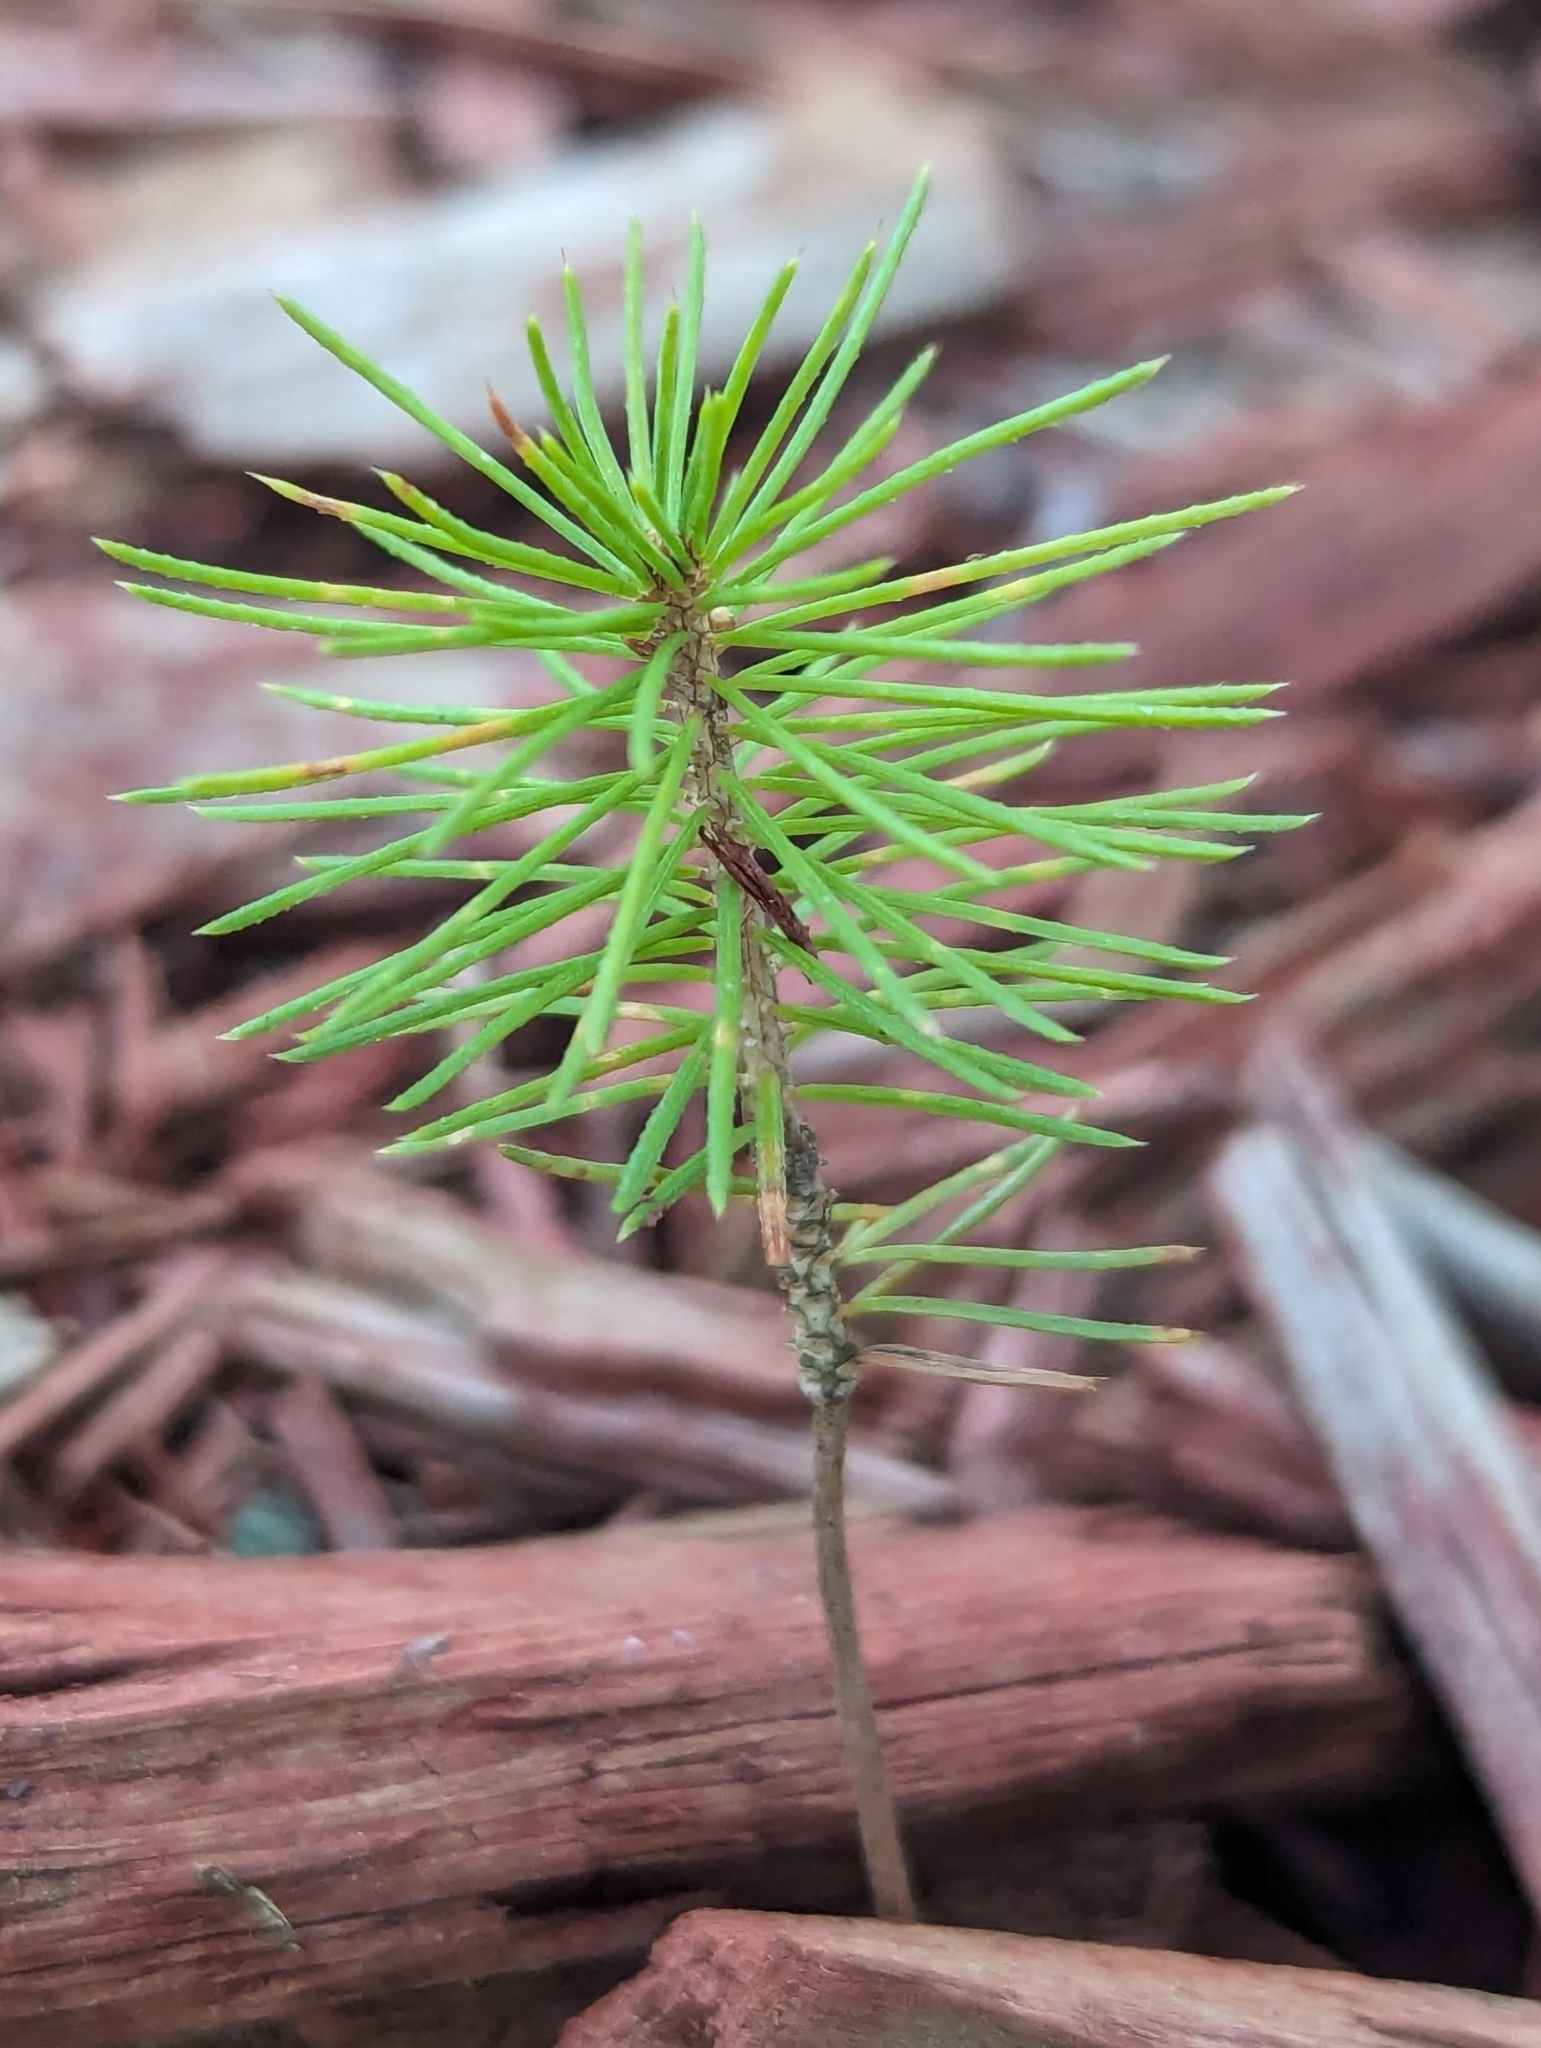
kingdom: Plantae
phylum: Tracheophyta
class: Pinopsida
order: Pinales
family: Pinaceae
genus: Pinus
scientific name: Pinus sylvestris
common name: Scots pine
